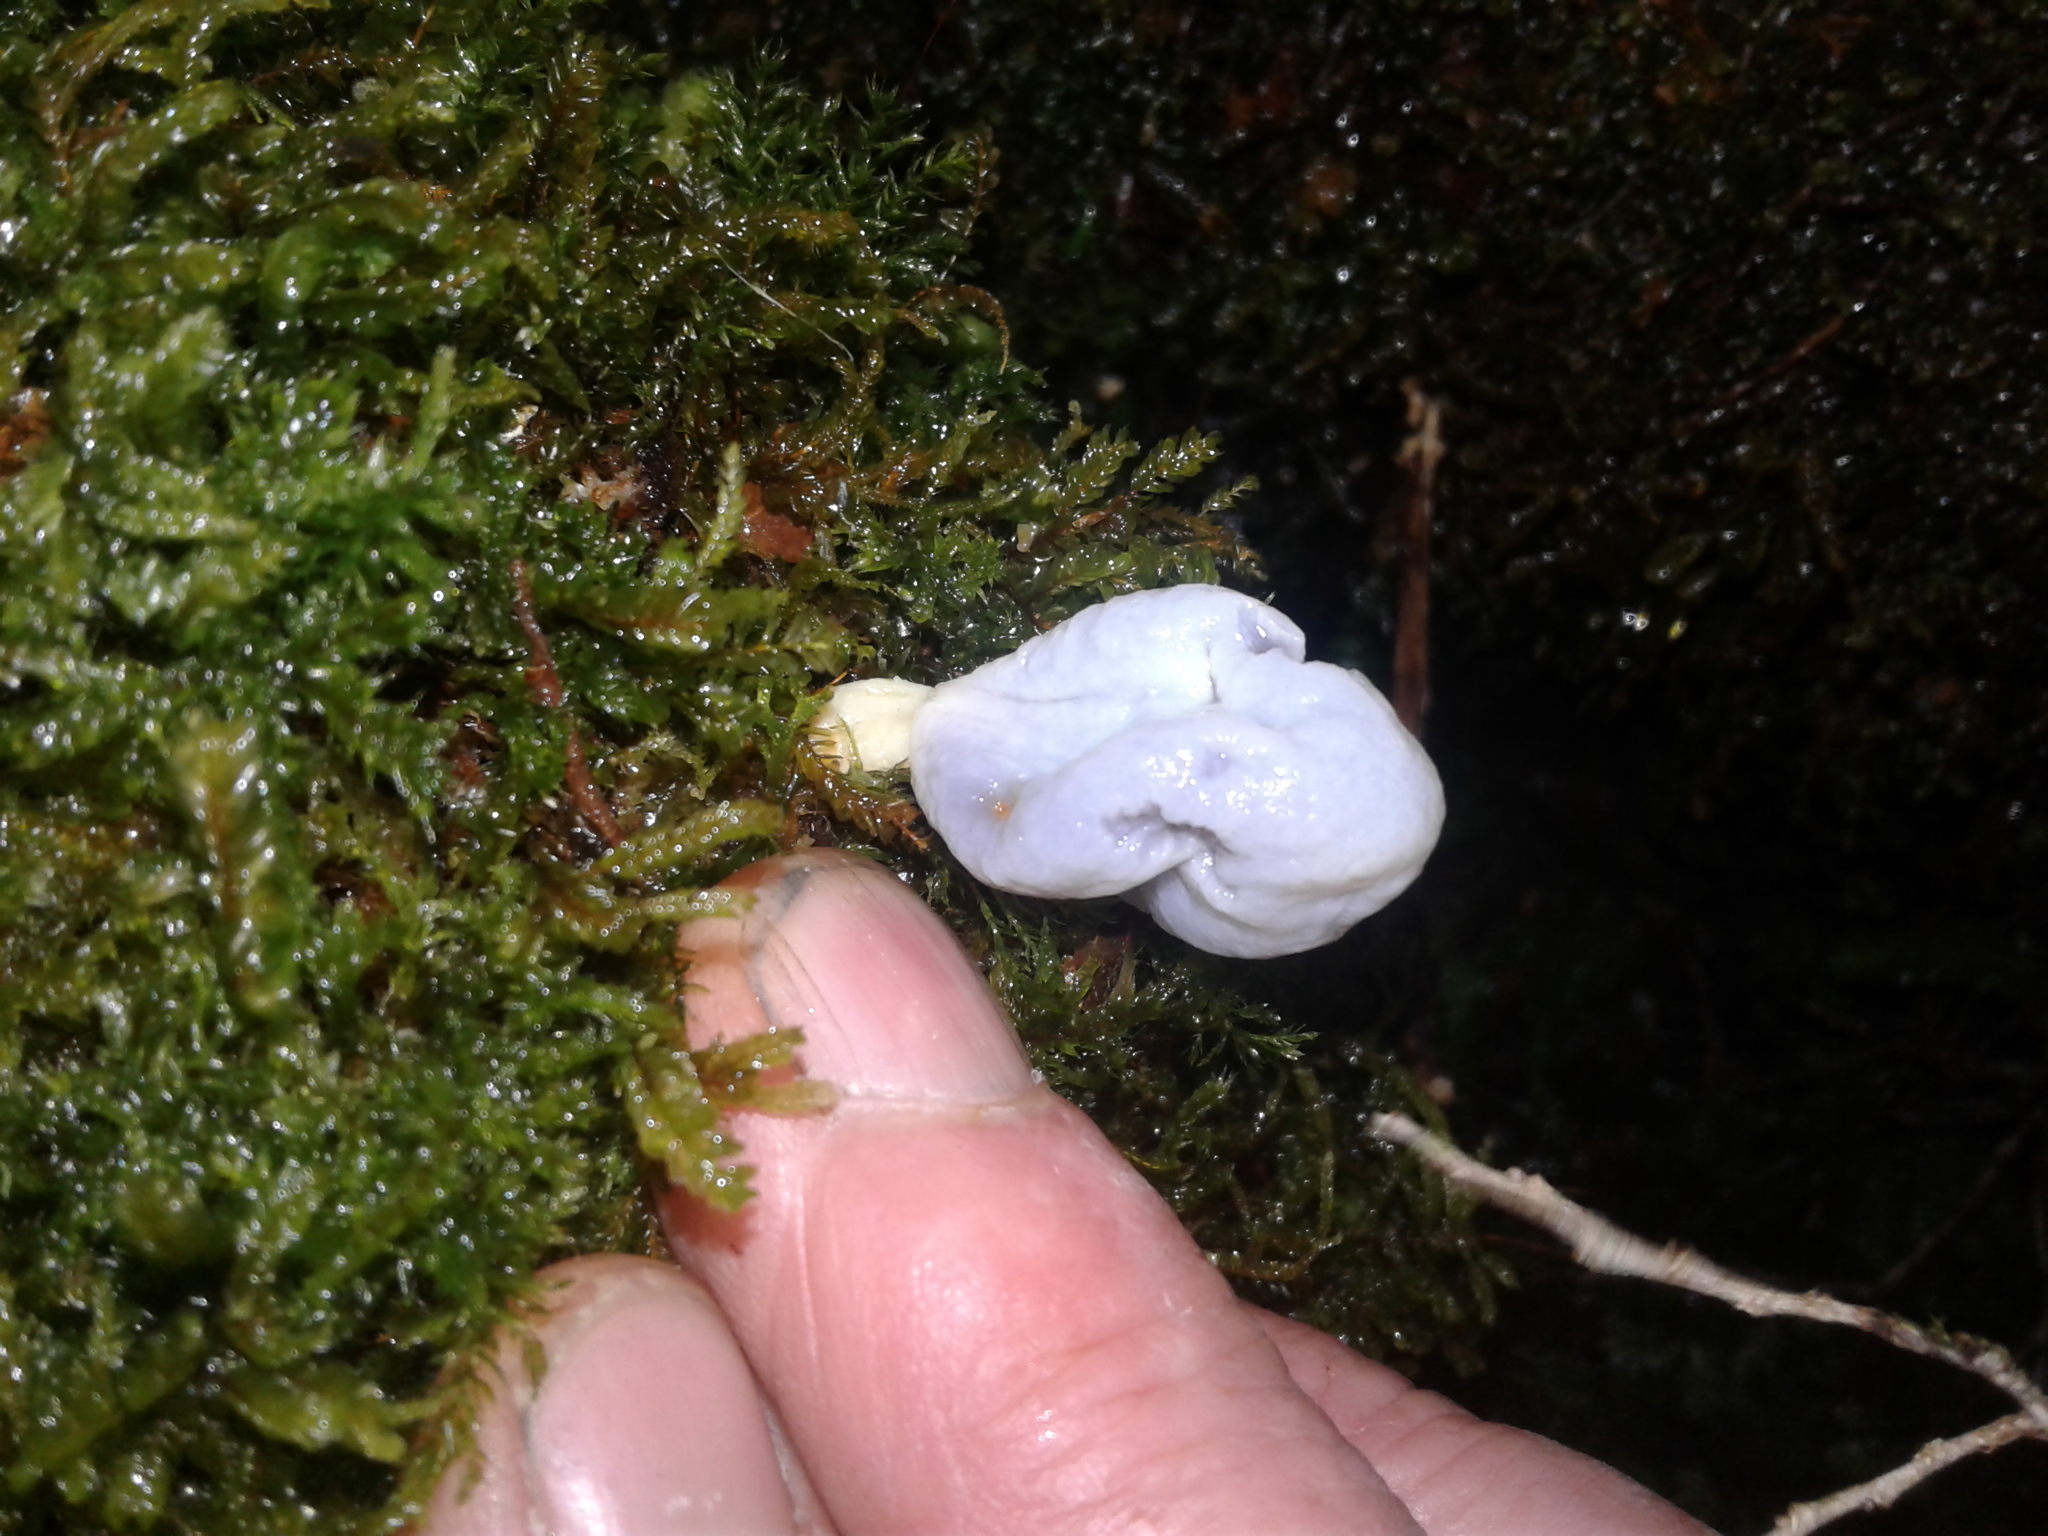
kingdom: Fungi
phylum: Basidiomycota
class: Agaricomycetes
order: Agaricales
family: Agaricaceae
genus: Clavogaster
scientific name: Clavogaster virescens
